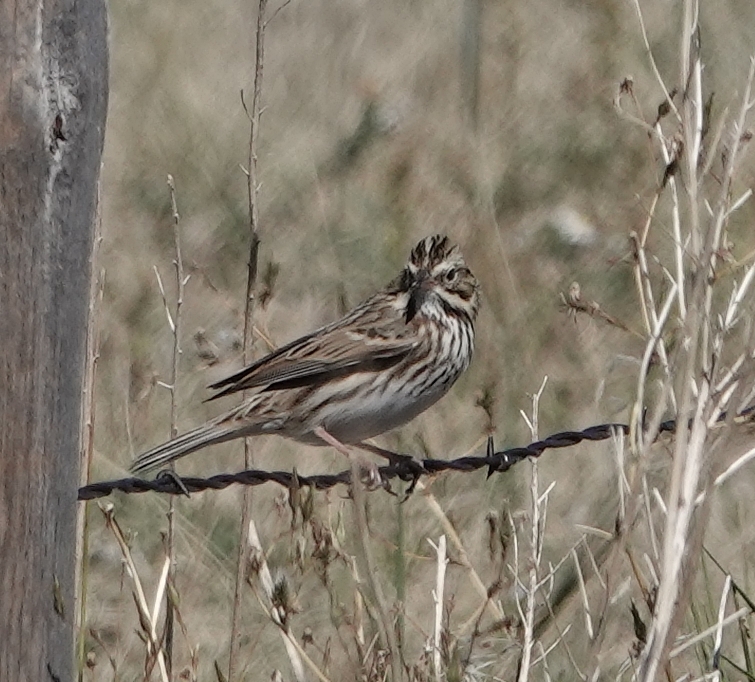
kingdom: Animalia
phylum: Chordata
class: Aves
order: Passeriformes
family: Passerellidae
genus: Passerculus
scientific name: Passerculus sandwichensis
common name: Savannah sparrow
